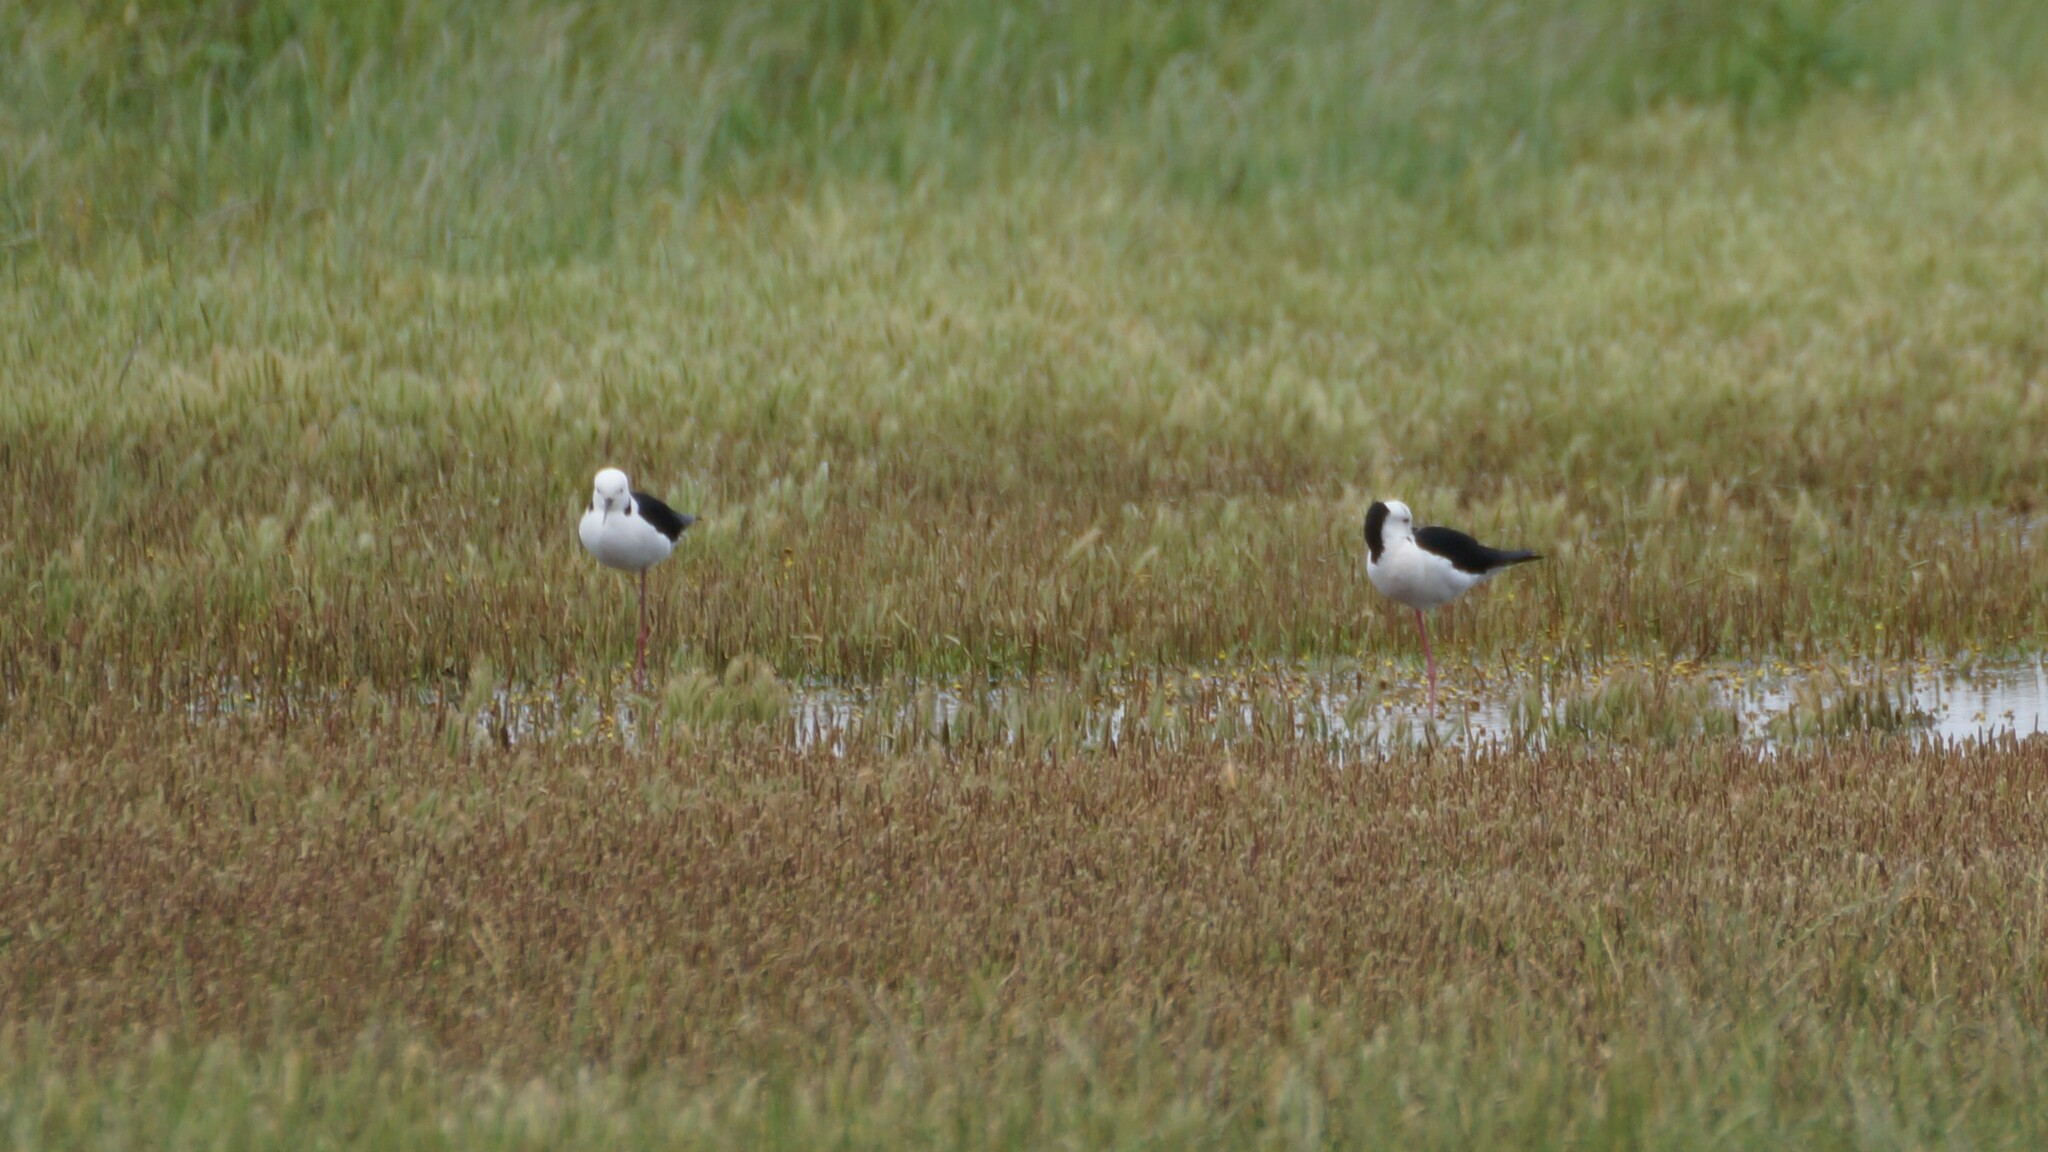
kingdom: Animalia
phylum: Chordata
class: Aves
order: Charadriiformes
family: Recurvirostridae
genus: Himantopus
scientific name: Himantopus leucocephalus
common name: White-headed stilt
